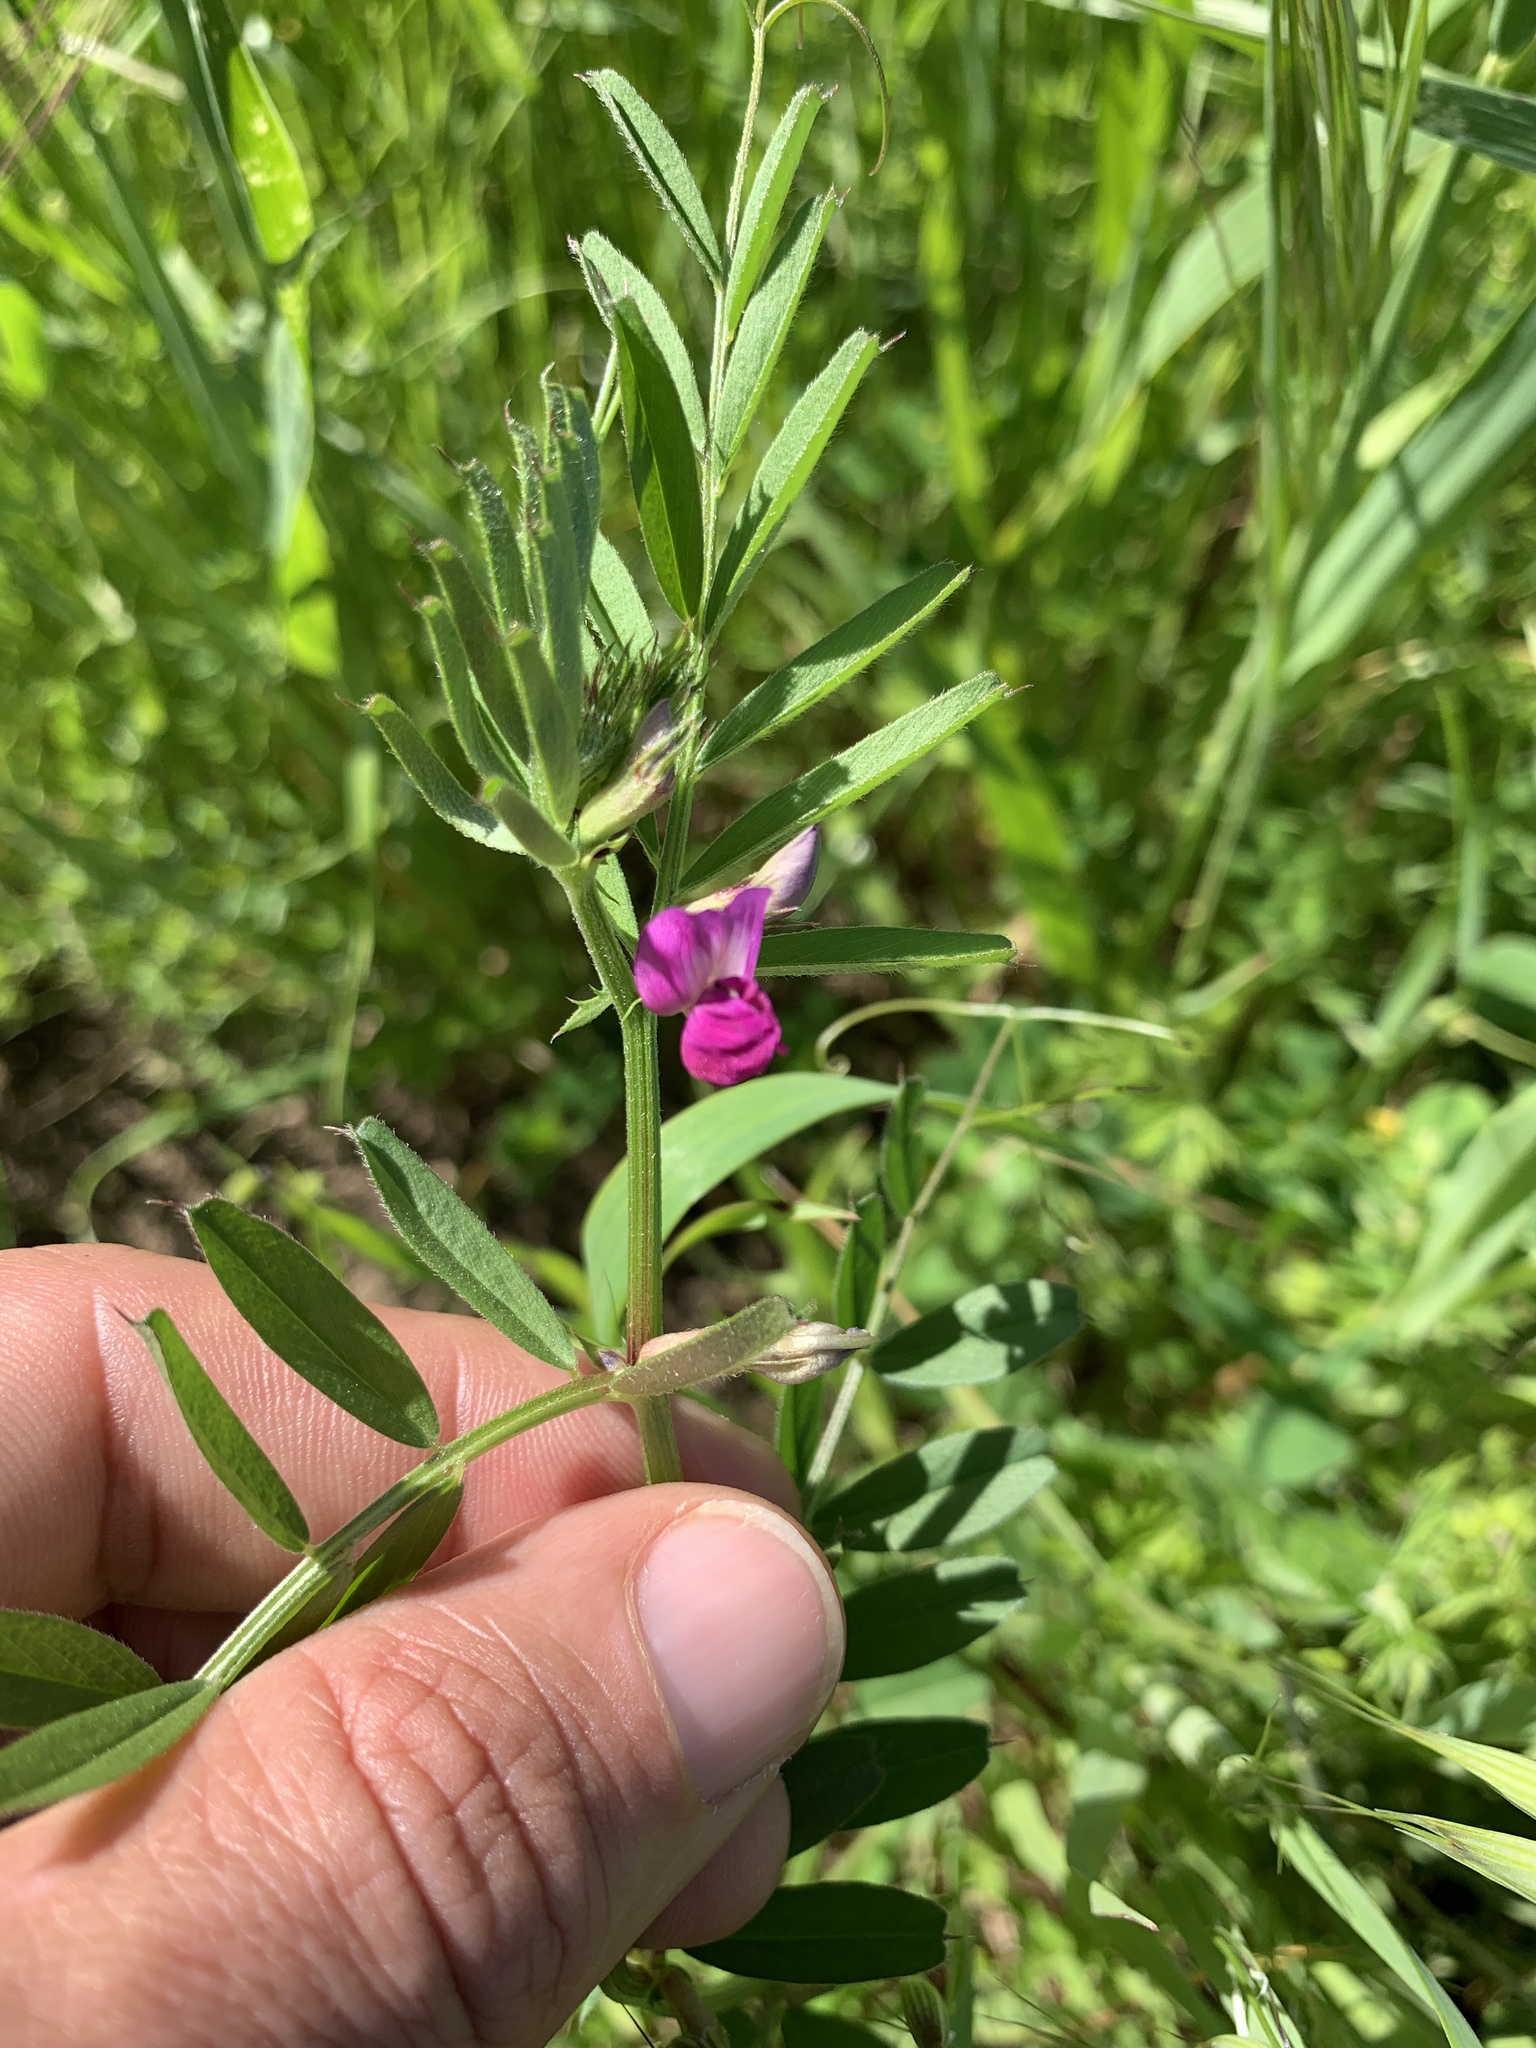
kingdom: Plantae
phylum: Tracheophyta
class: Magnoliopsida
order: Fabales
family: Fabaceae
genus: Vicia
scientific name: Vicia sativa
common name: Garden vetch
